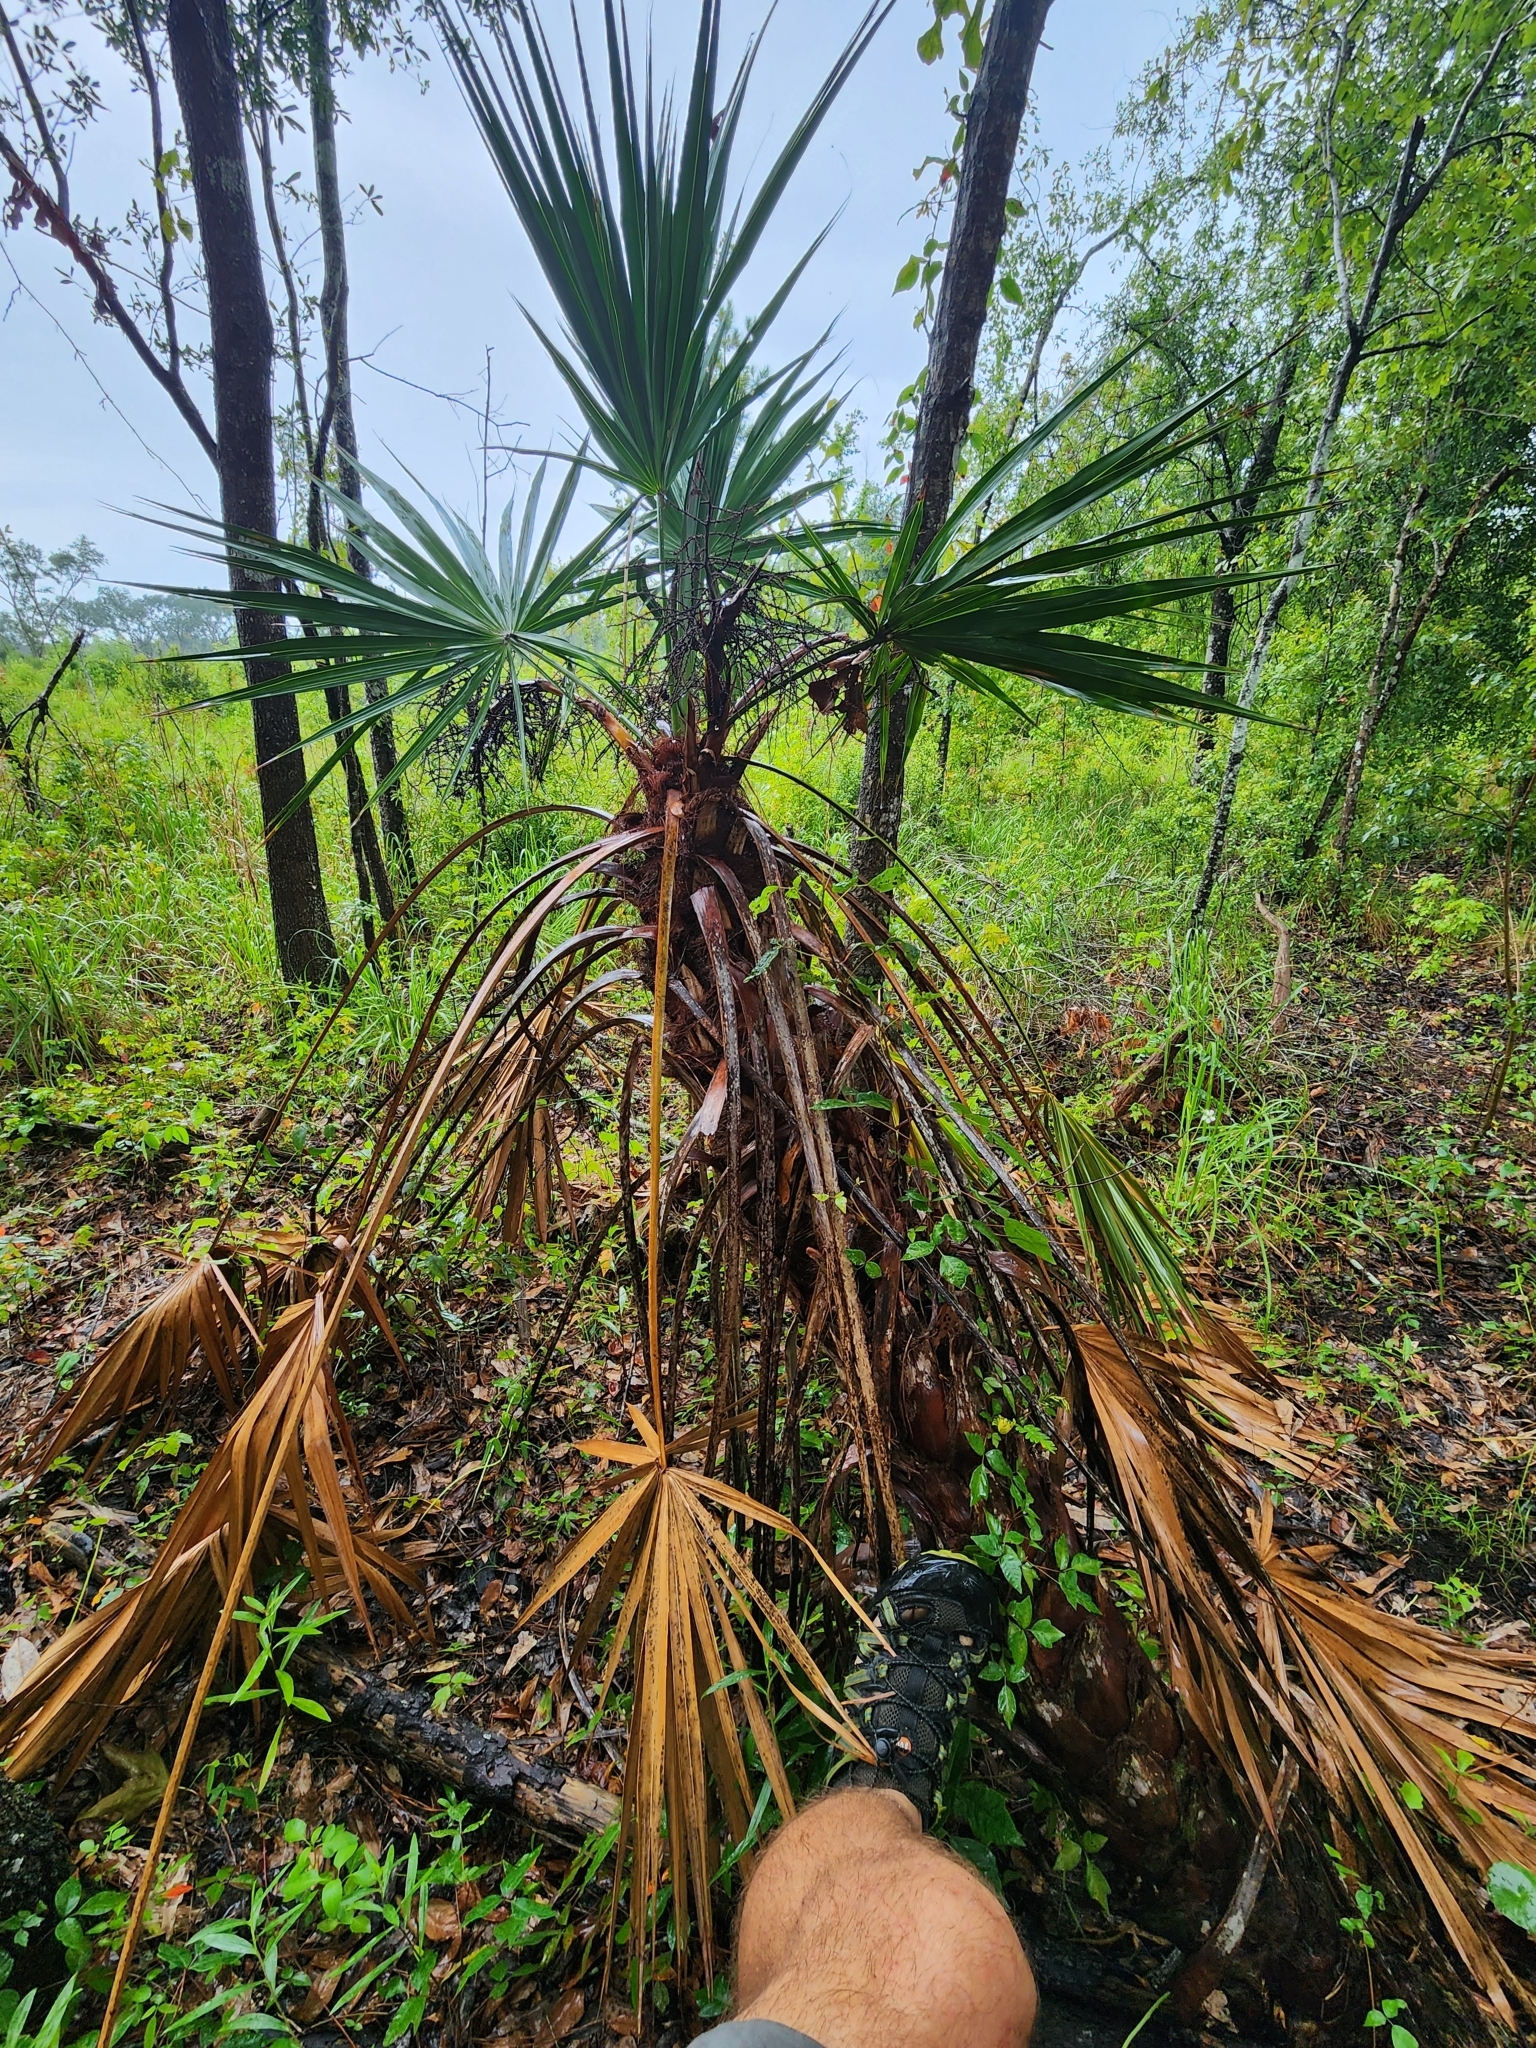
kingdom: Plantae
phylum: Tracheophyta
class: Liliopsida
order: Arecales
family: Arecaceae
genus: Serenoa
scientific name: Serenoa repens
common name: Saw-palmetto
